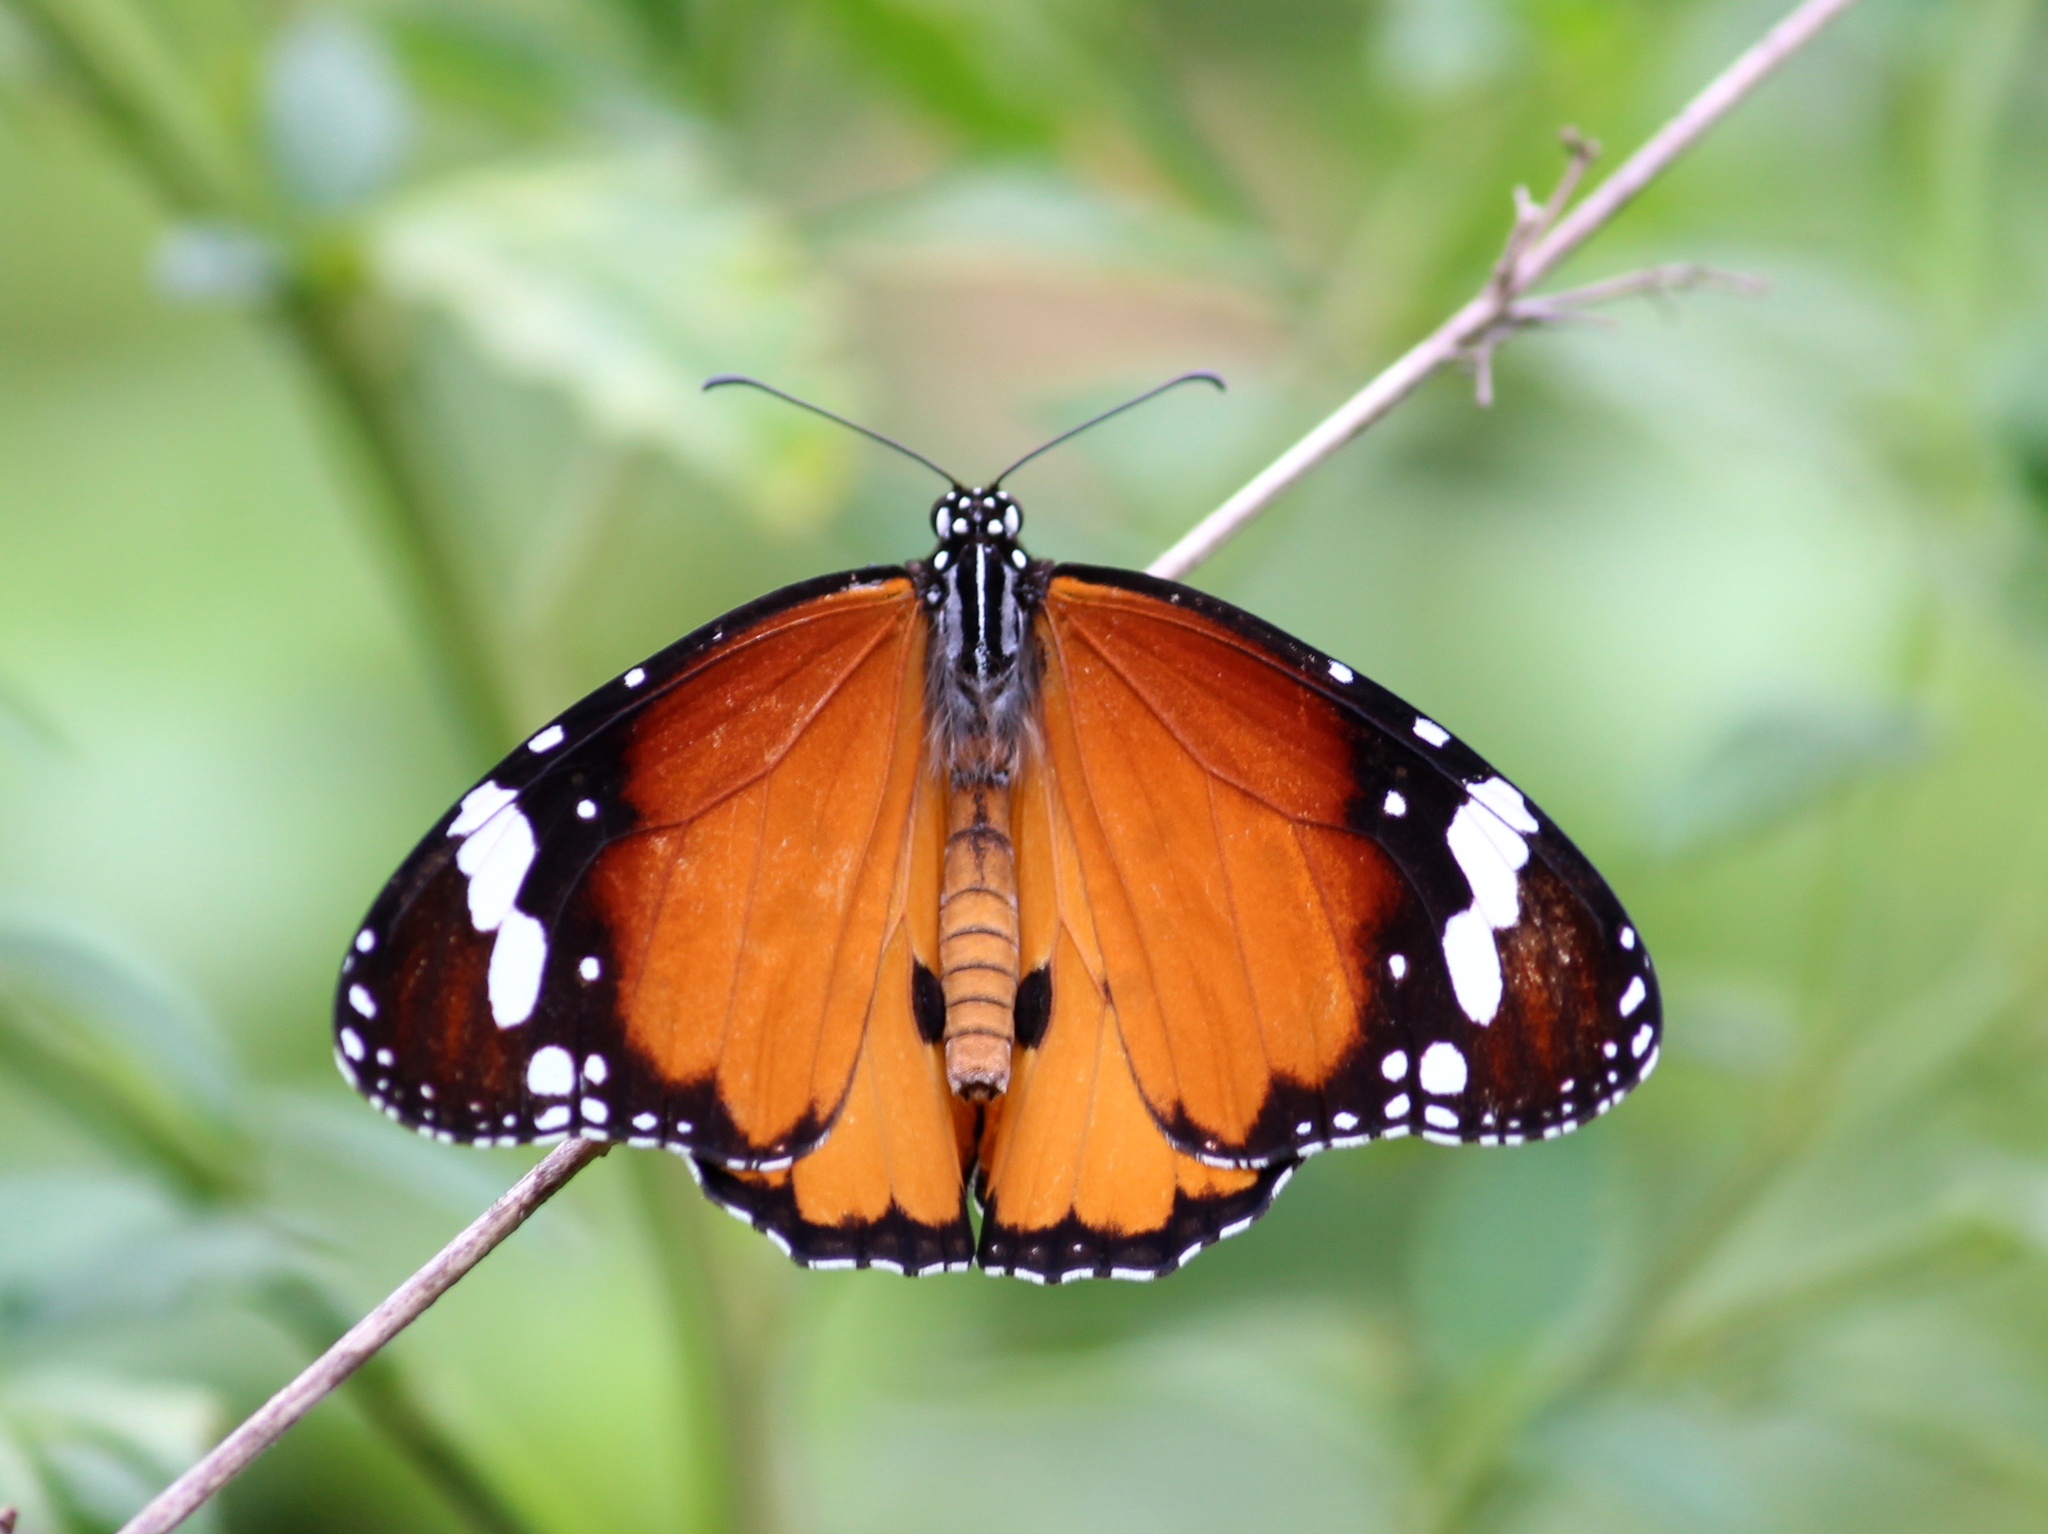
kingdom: Animalia
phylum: Arthropoda
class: Insecta
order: Lepidoptera
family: Nymphalidae
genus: Danaus
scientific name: Danaus chrysippus
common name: Plain tiger
